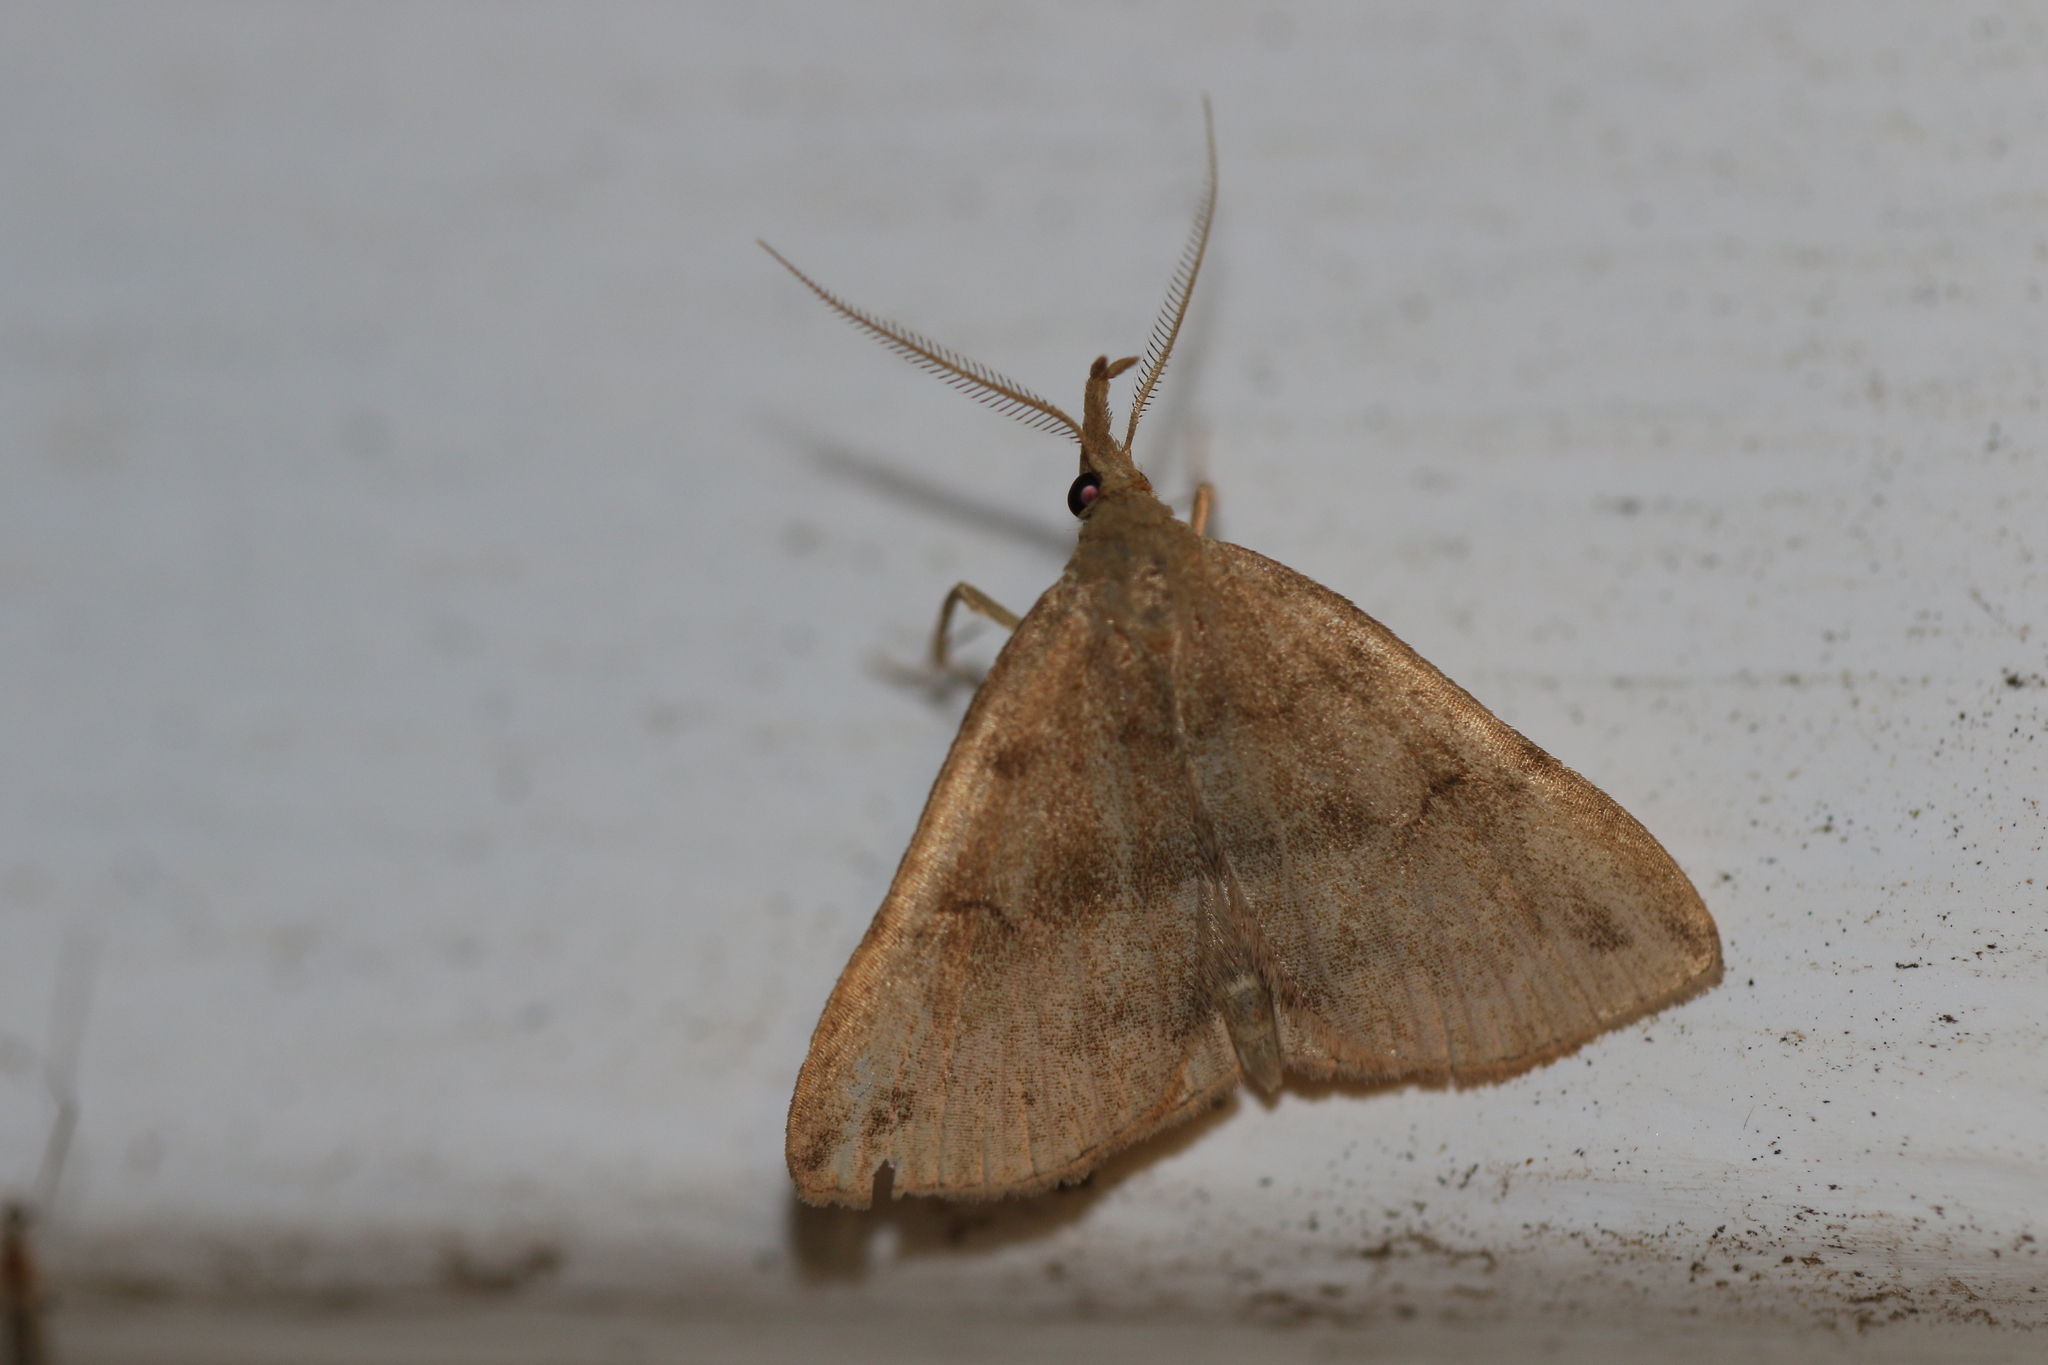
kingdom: Animalia
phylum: Arthropoda
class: Insecta
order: Lepidoptera
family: Erebidae
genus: Phalaenostola
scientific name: Phalaenostola eumelusalis
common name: Dark phalaenostola moth
